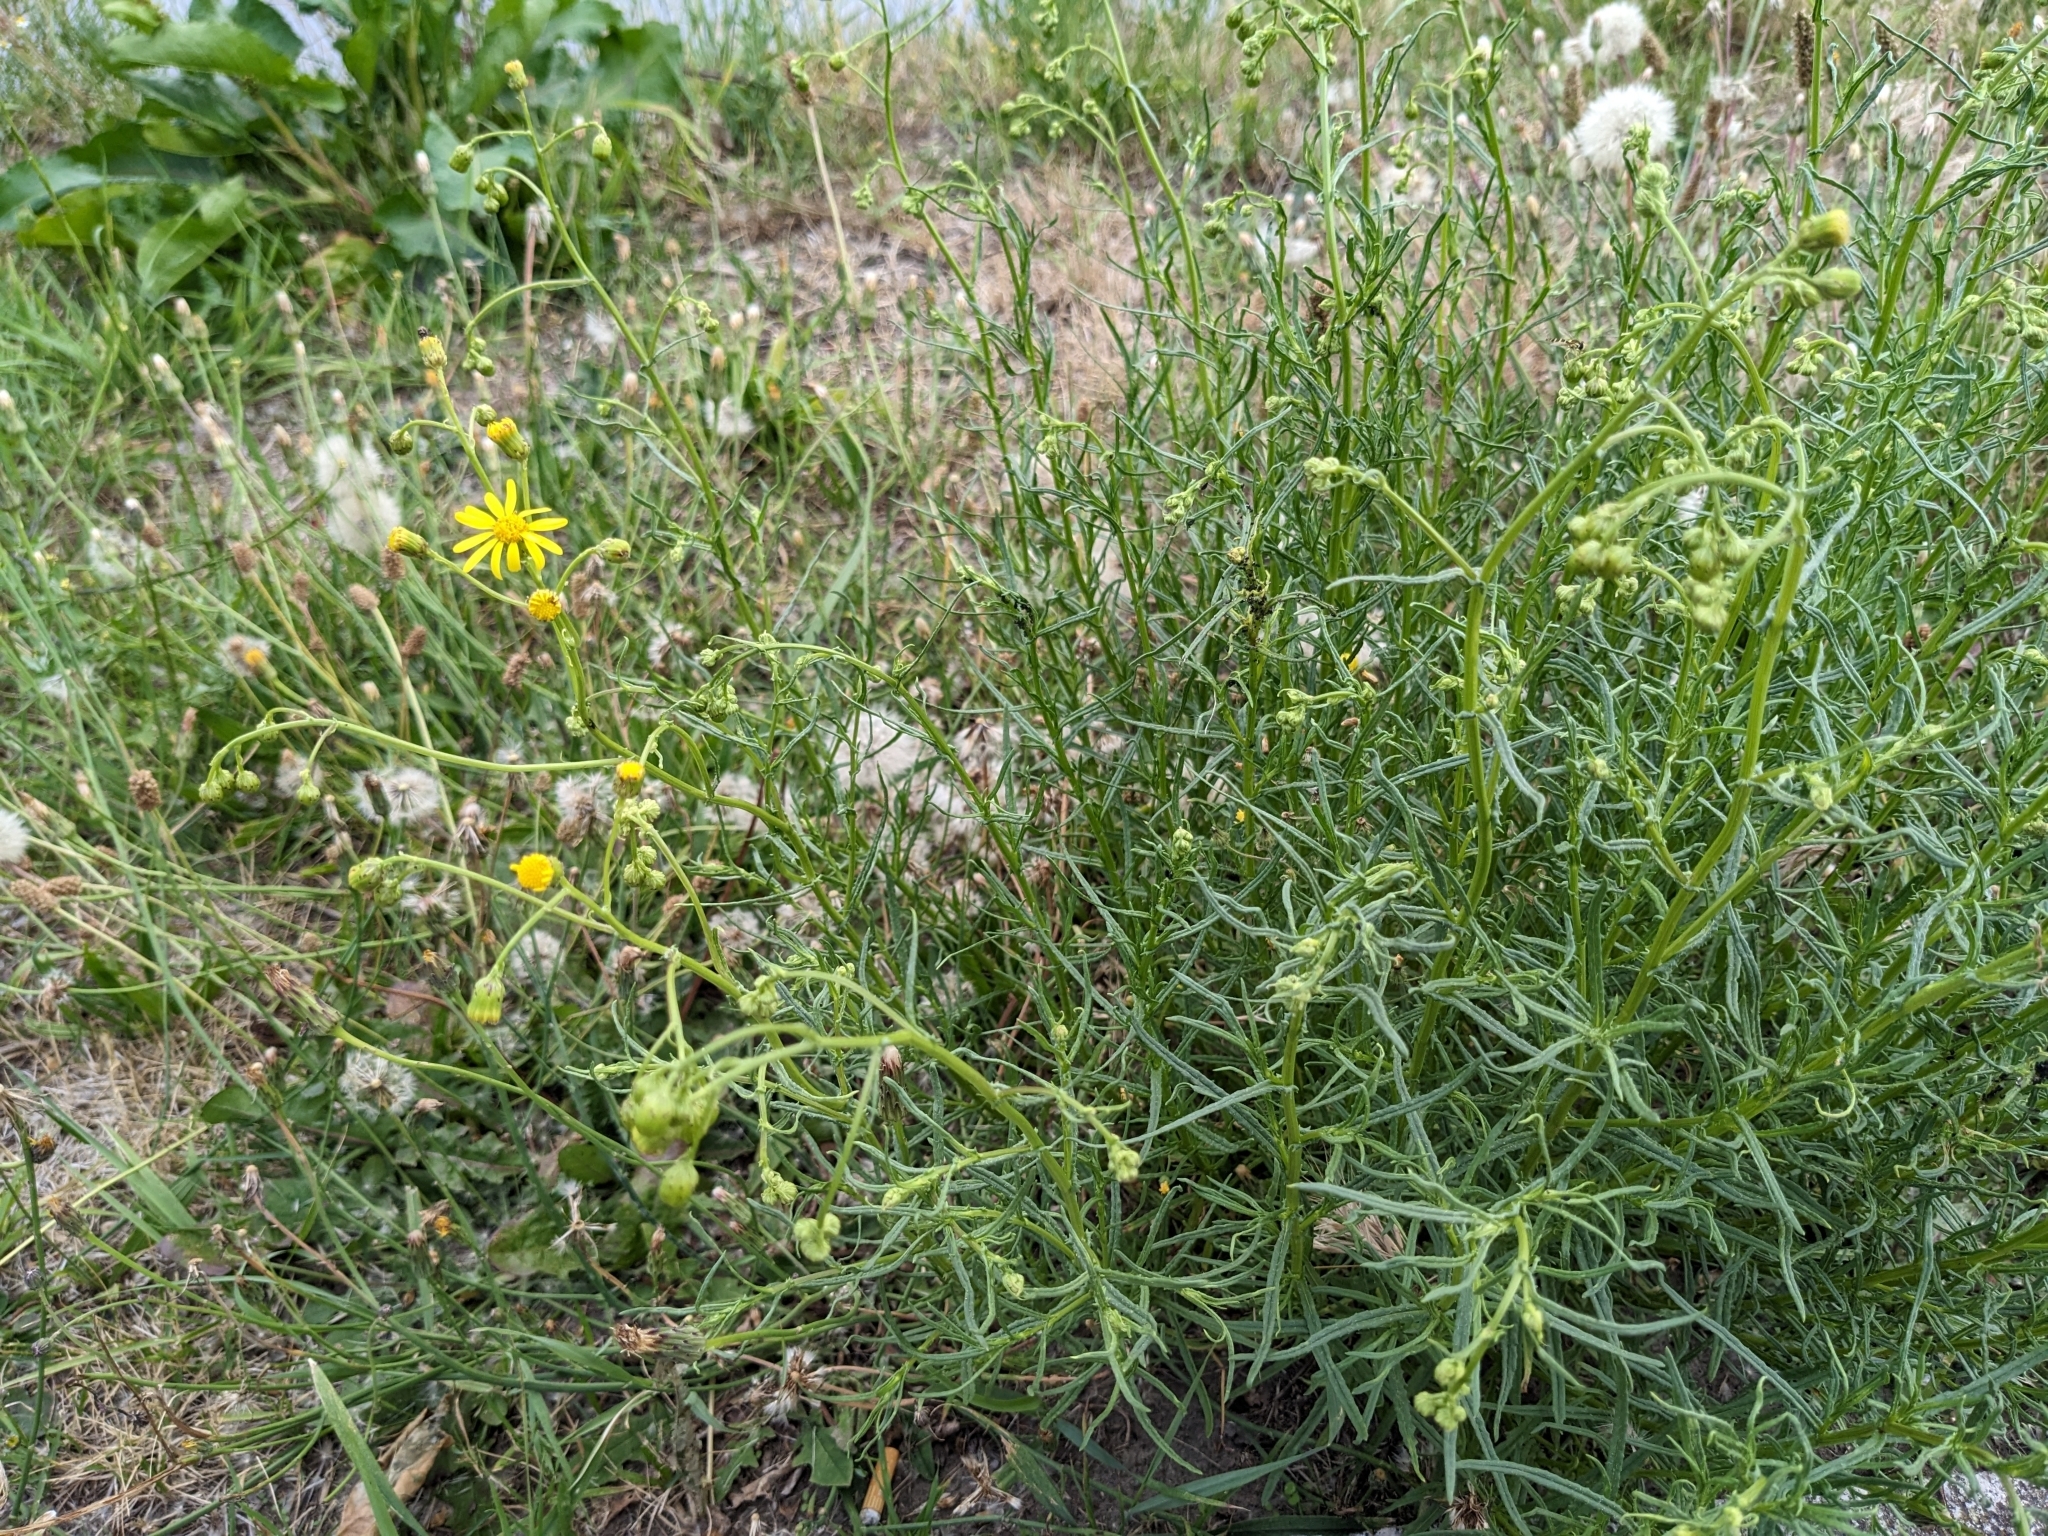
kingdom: Plantae
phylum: Tracheophyta
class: Magnoliopsida
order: Asterales
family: Asteraceae
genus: Senecio
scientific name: Senecio inaequidens
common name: Narrow-leaved ragwort
